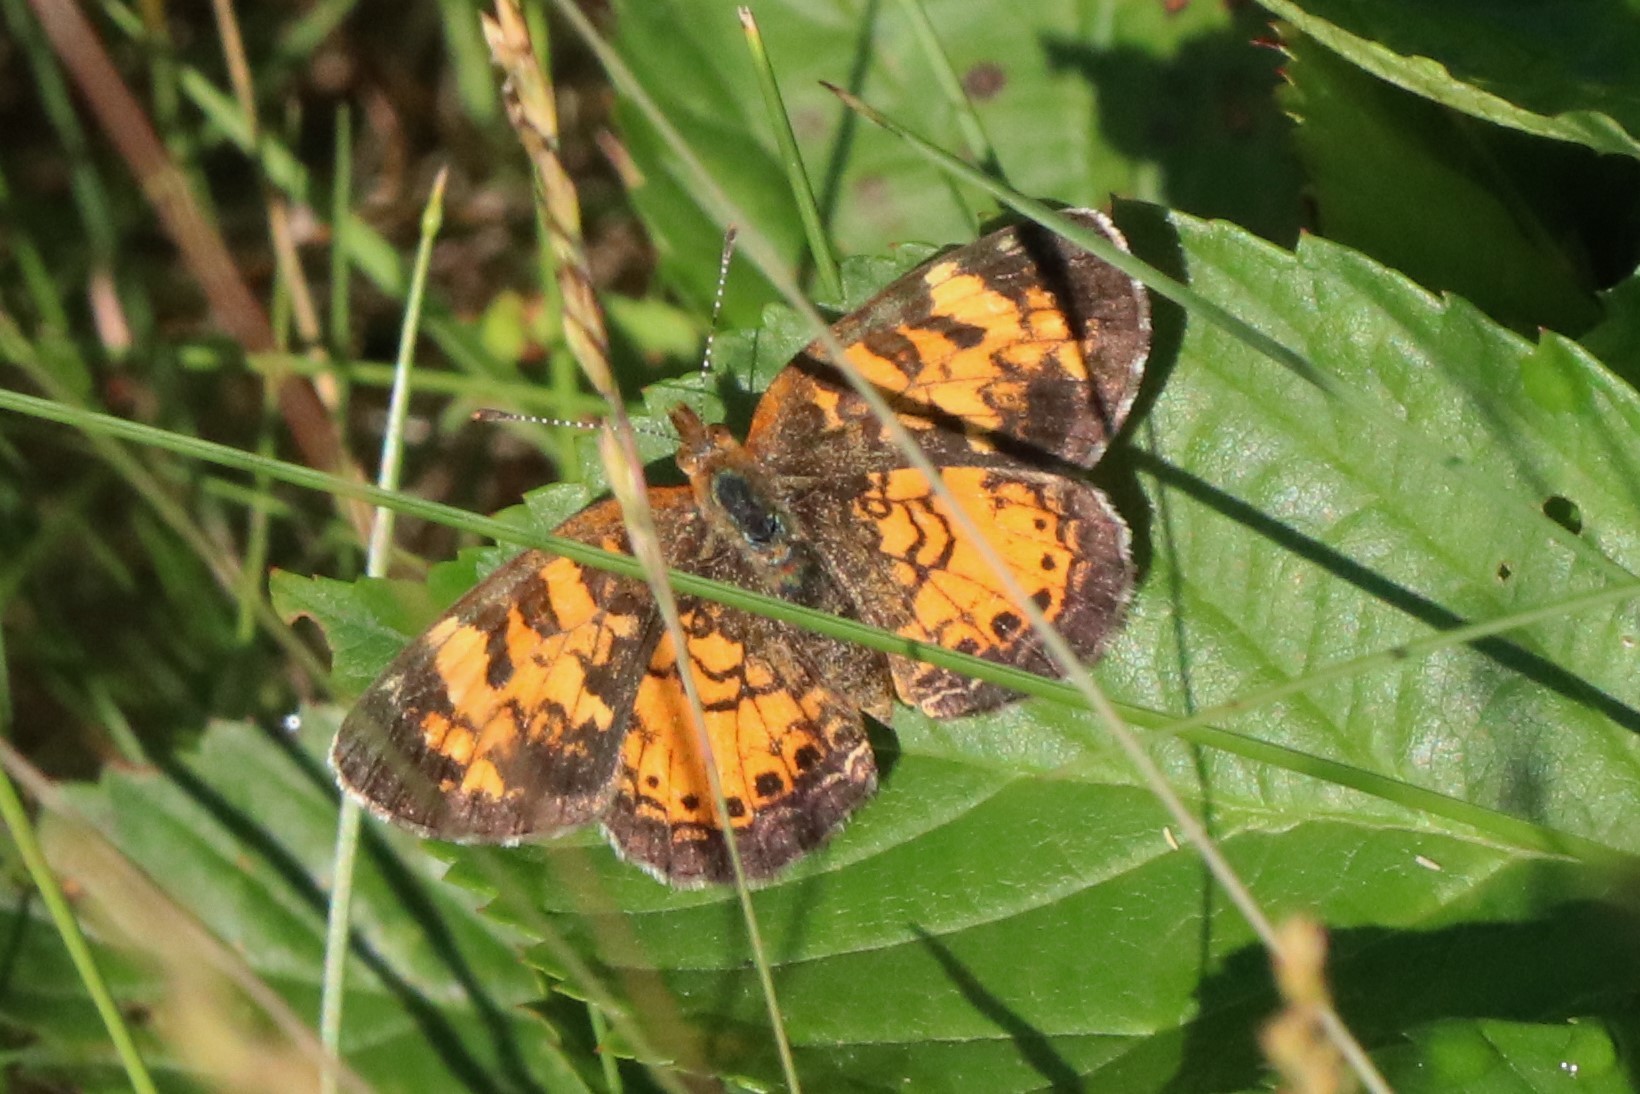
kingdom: Animalia
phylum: Arthropoda
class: Insecta
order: Lepidoptera
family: Nymphalidae
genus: Phyciodes
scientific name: Phyciodes tharos
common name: Pearl crescent
